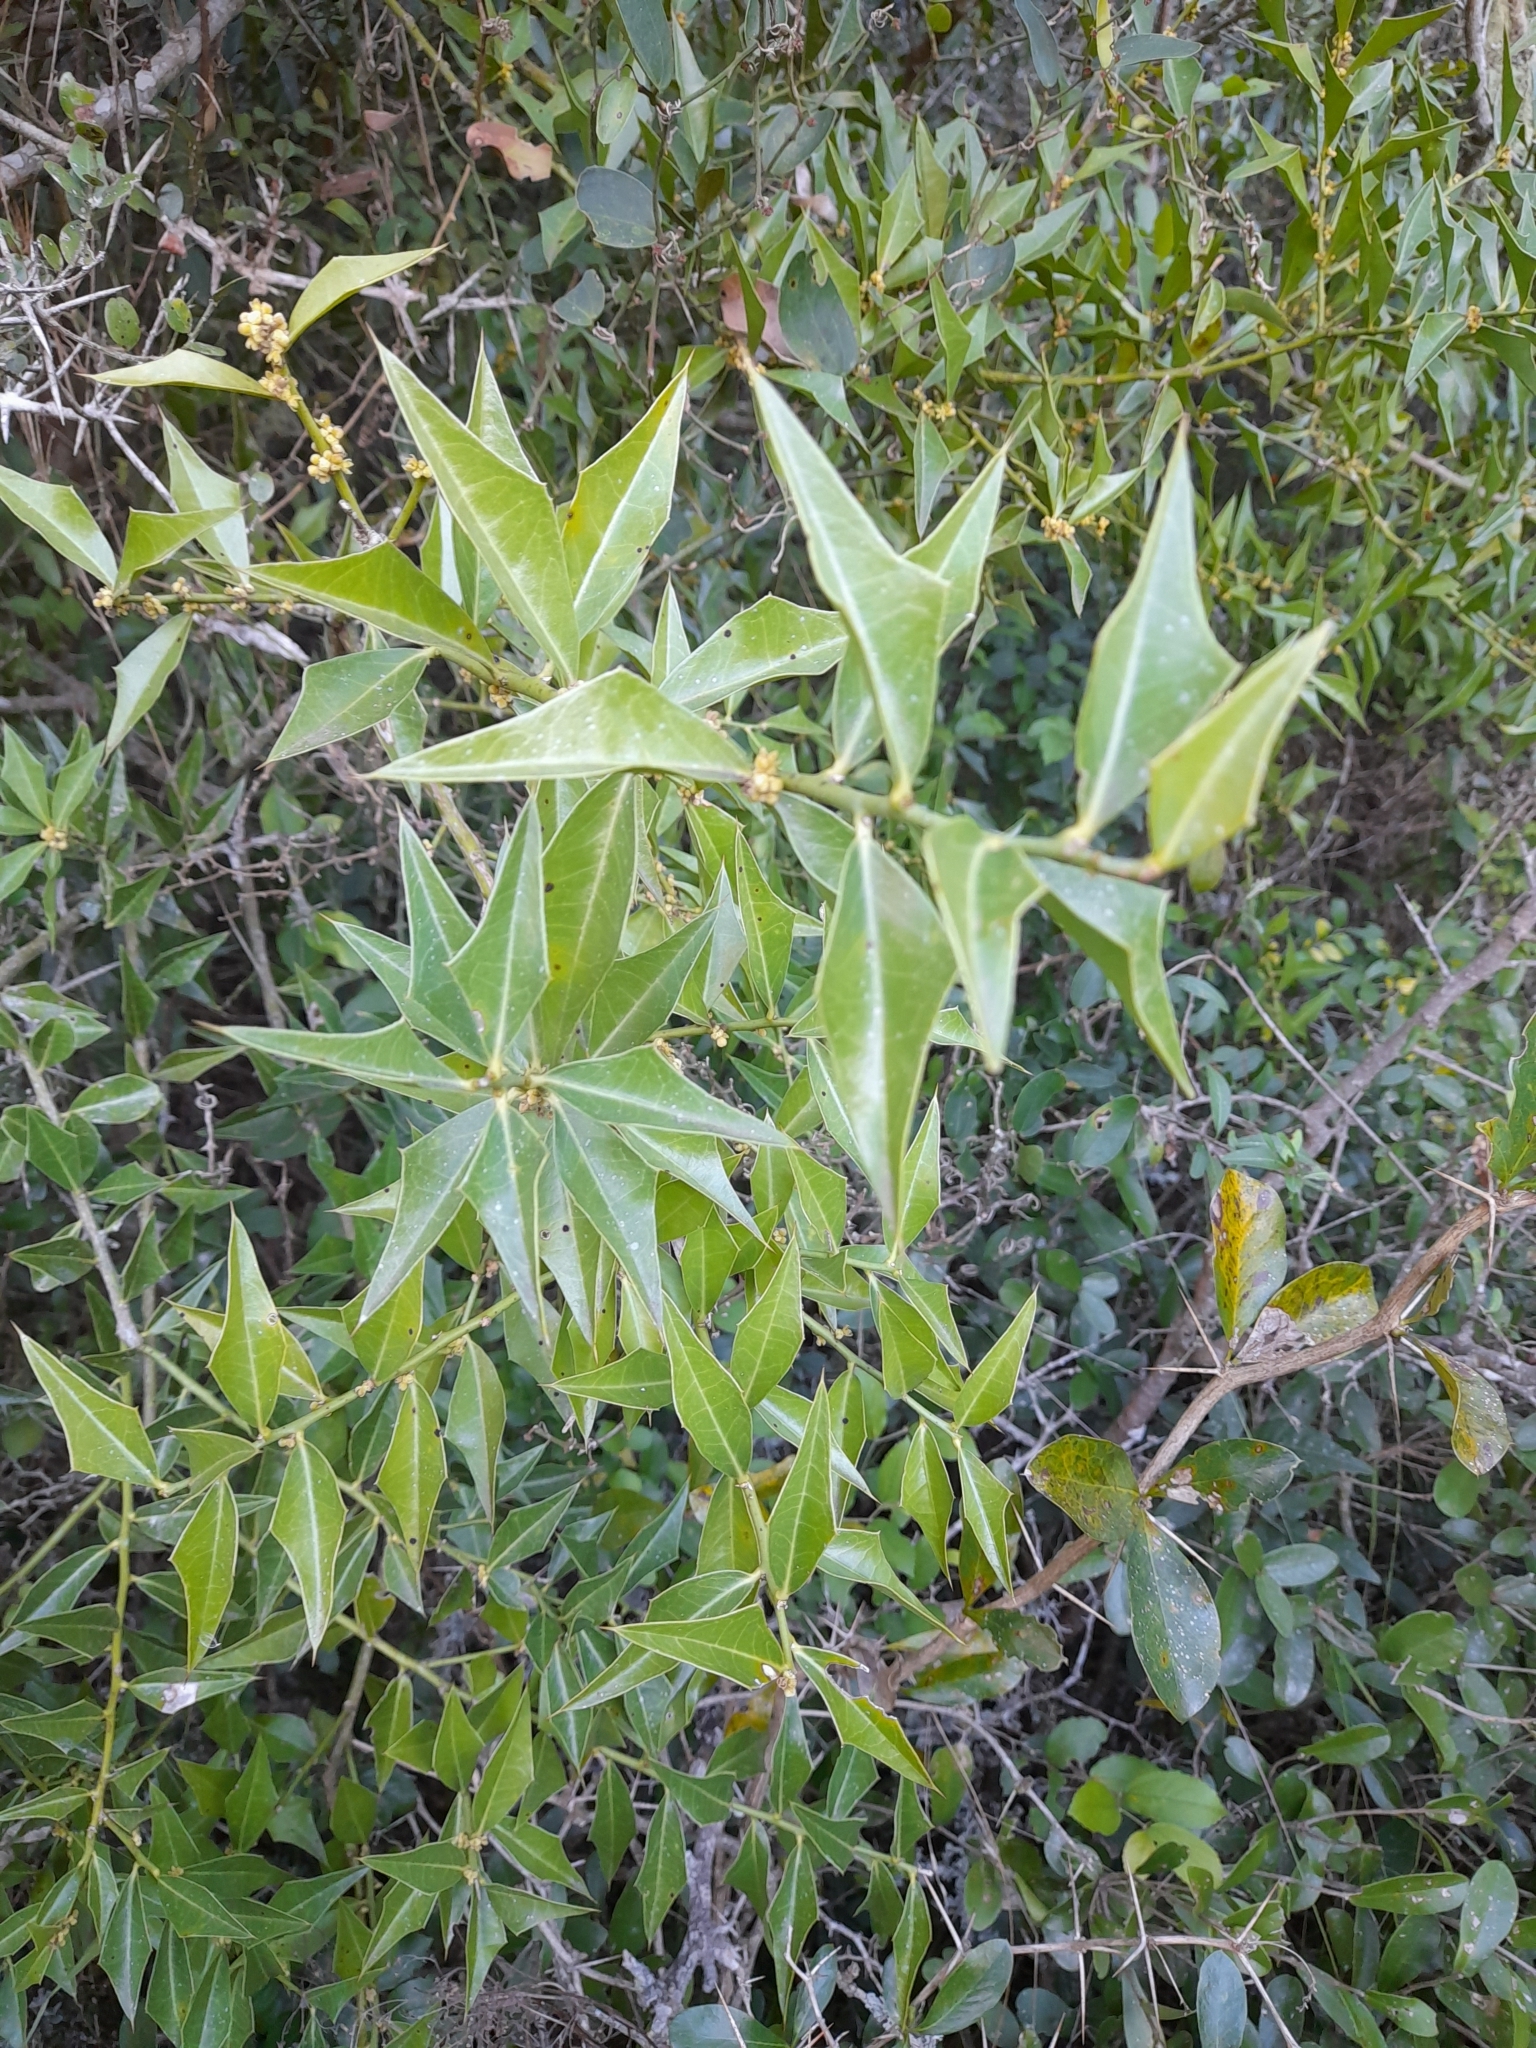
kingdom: Plantae
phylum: Tracheophyta
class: Magnoliopsida
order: Santalales
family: Cervantesiaceae
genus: Jodina
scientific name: Jodina rhombifolia
